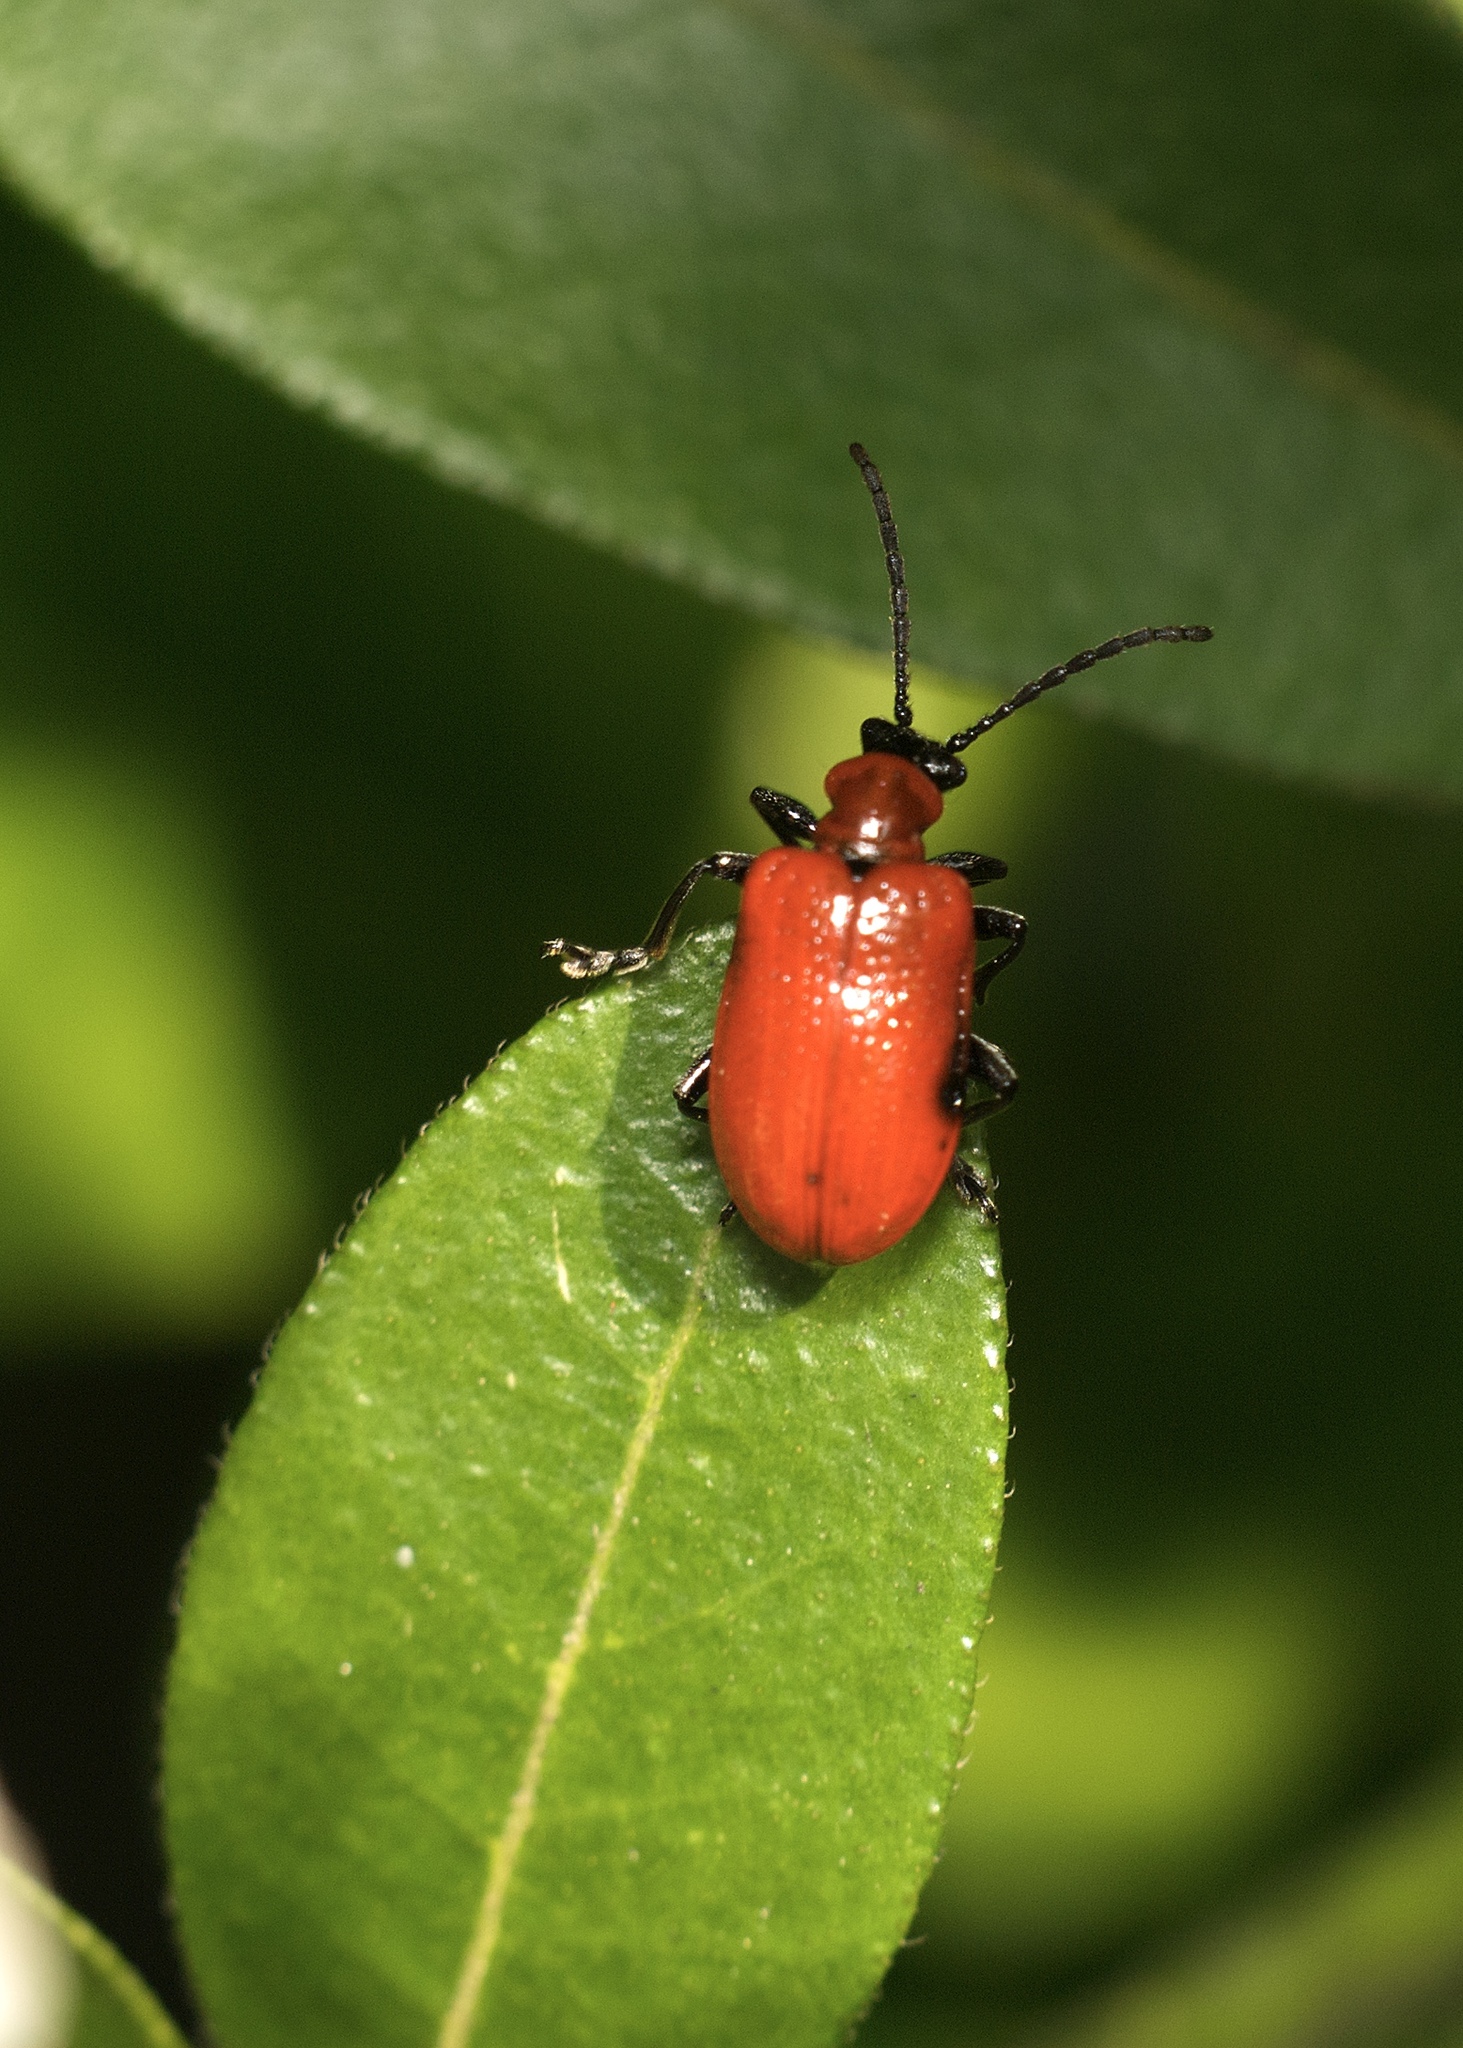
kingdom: Animalia
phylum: Arthropoda
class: Insecta
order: Coleoptera
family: Chrysomelidae
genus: Lilioceris
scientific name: Lilioceris lilii
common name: Lily beetle
